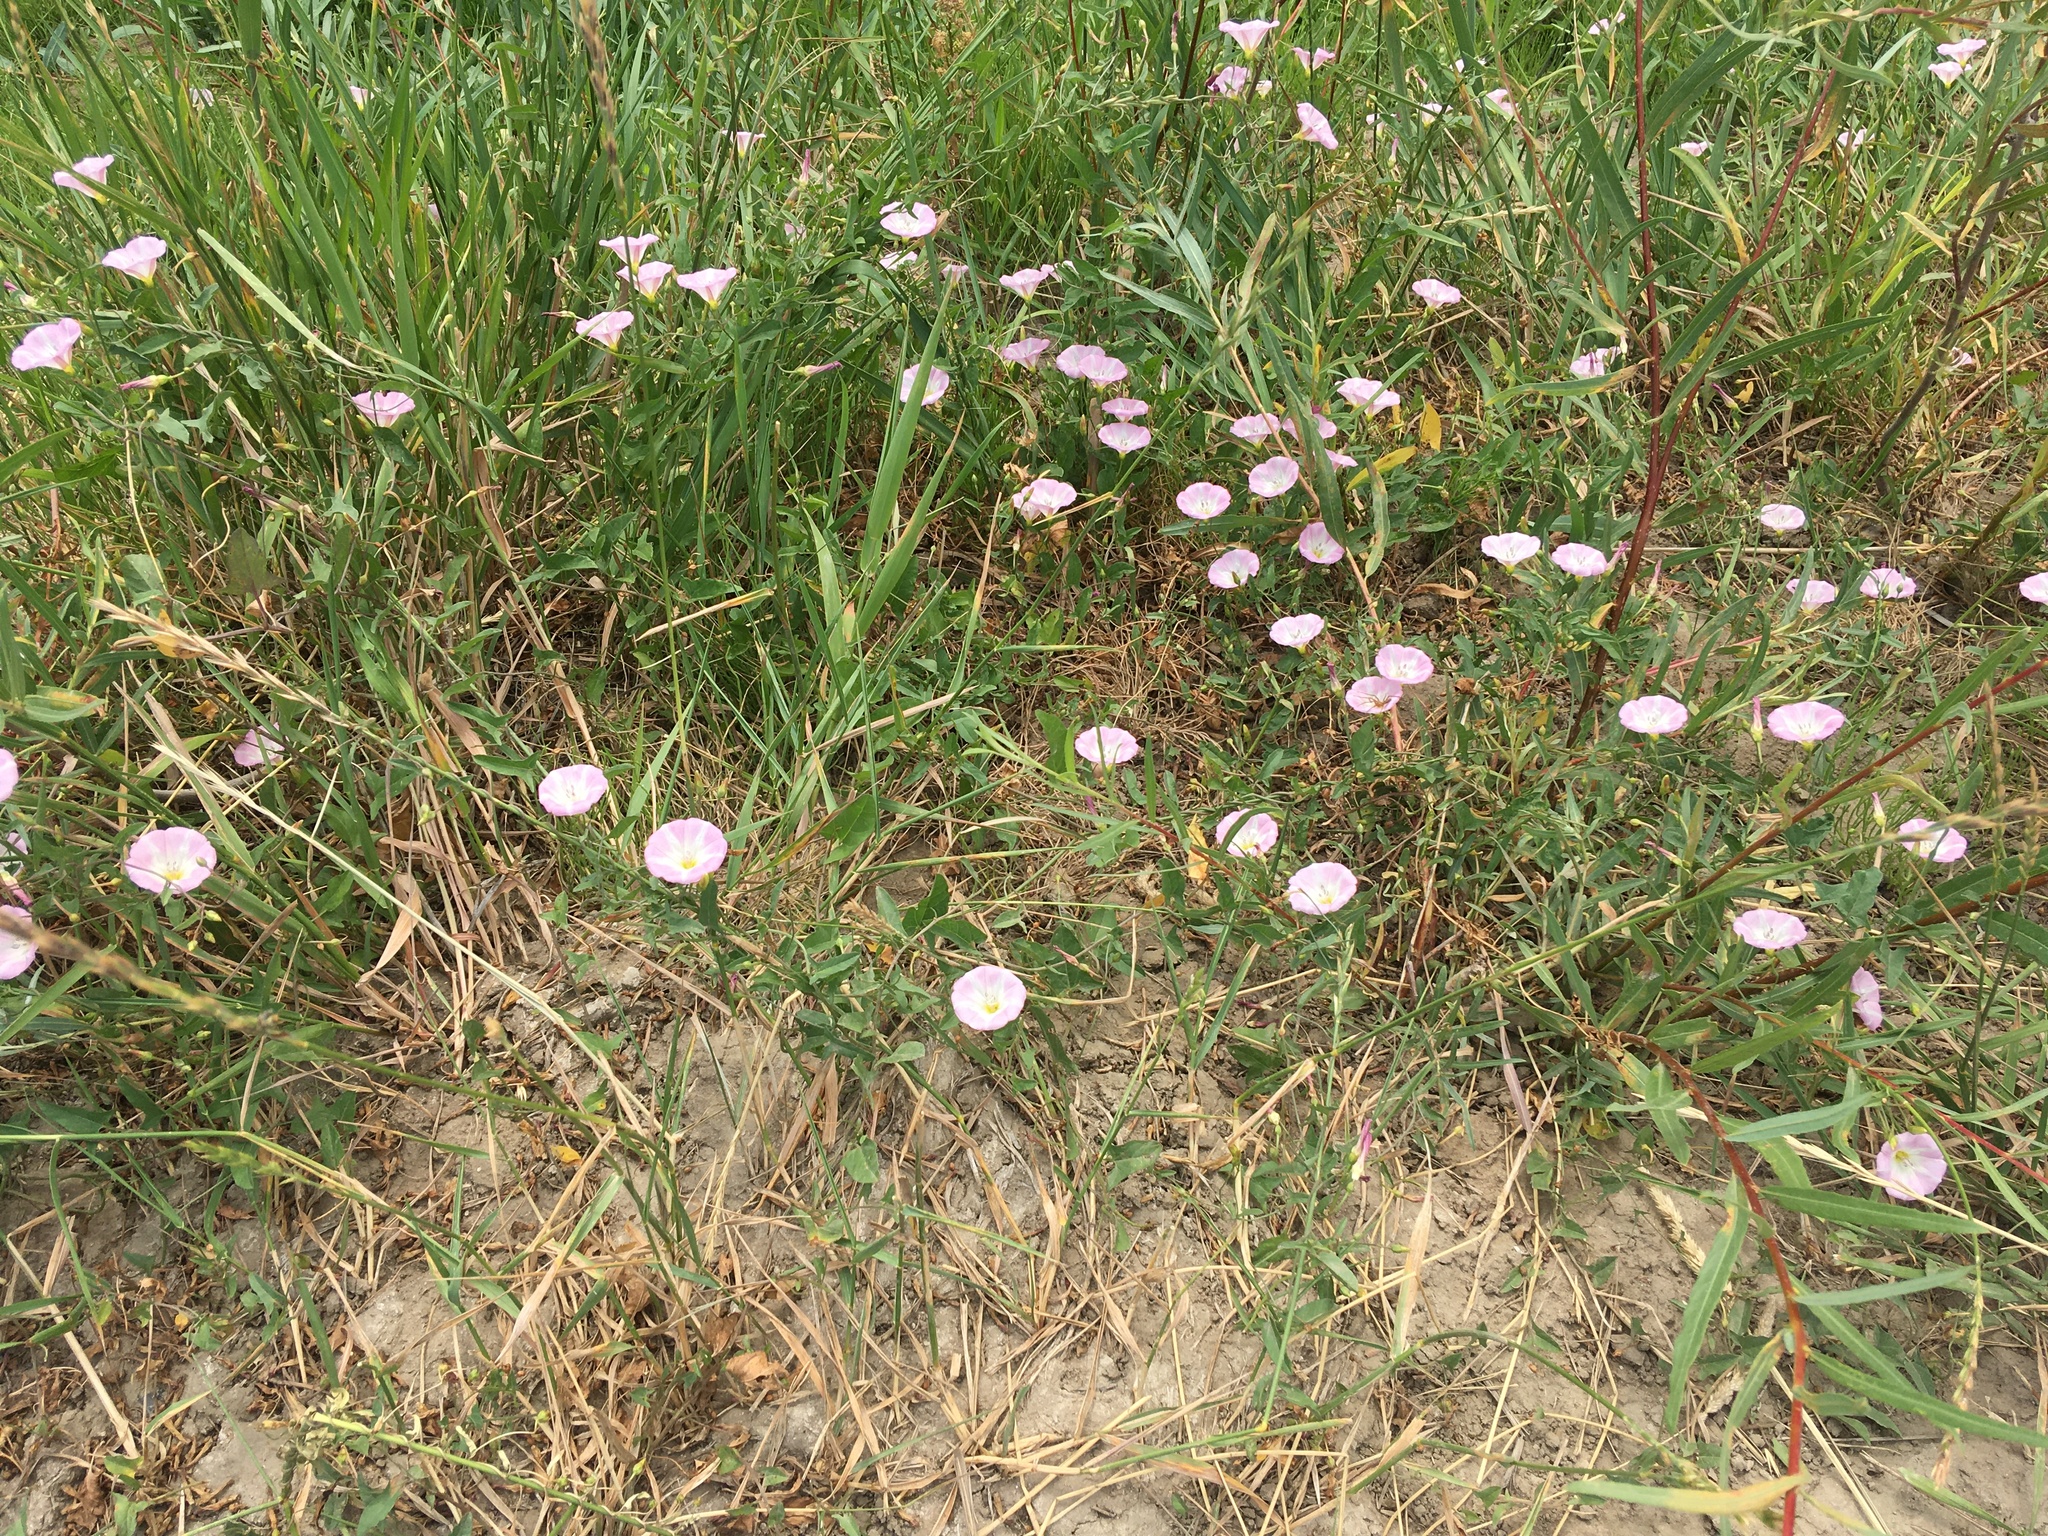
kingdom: Plantae
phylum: Tracheophyta
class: Magnoliopsida
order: Solanales
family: Convolvulaceae
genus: Convolvulus
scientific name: Convolvulus arvensis
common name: Field bindweed
